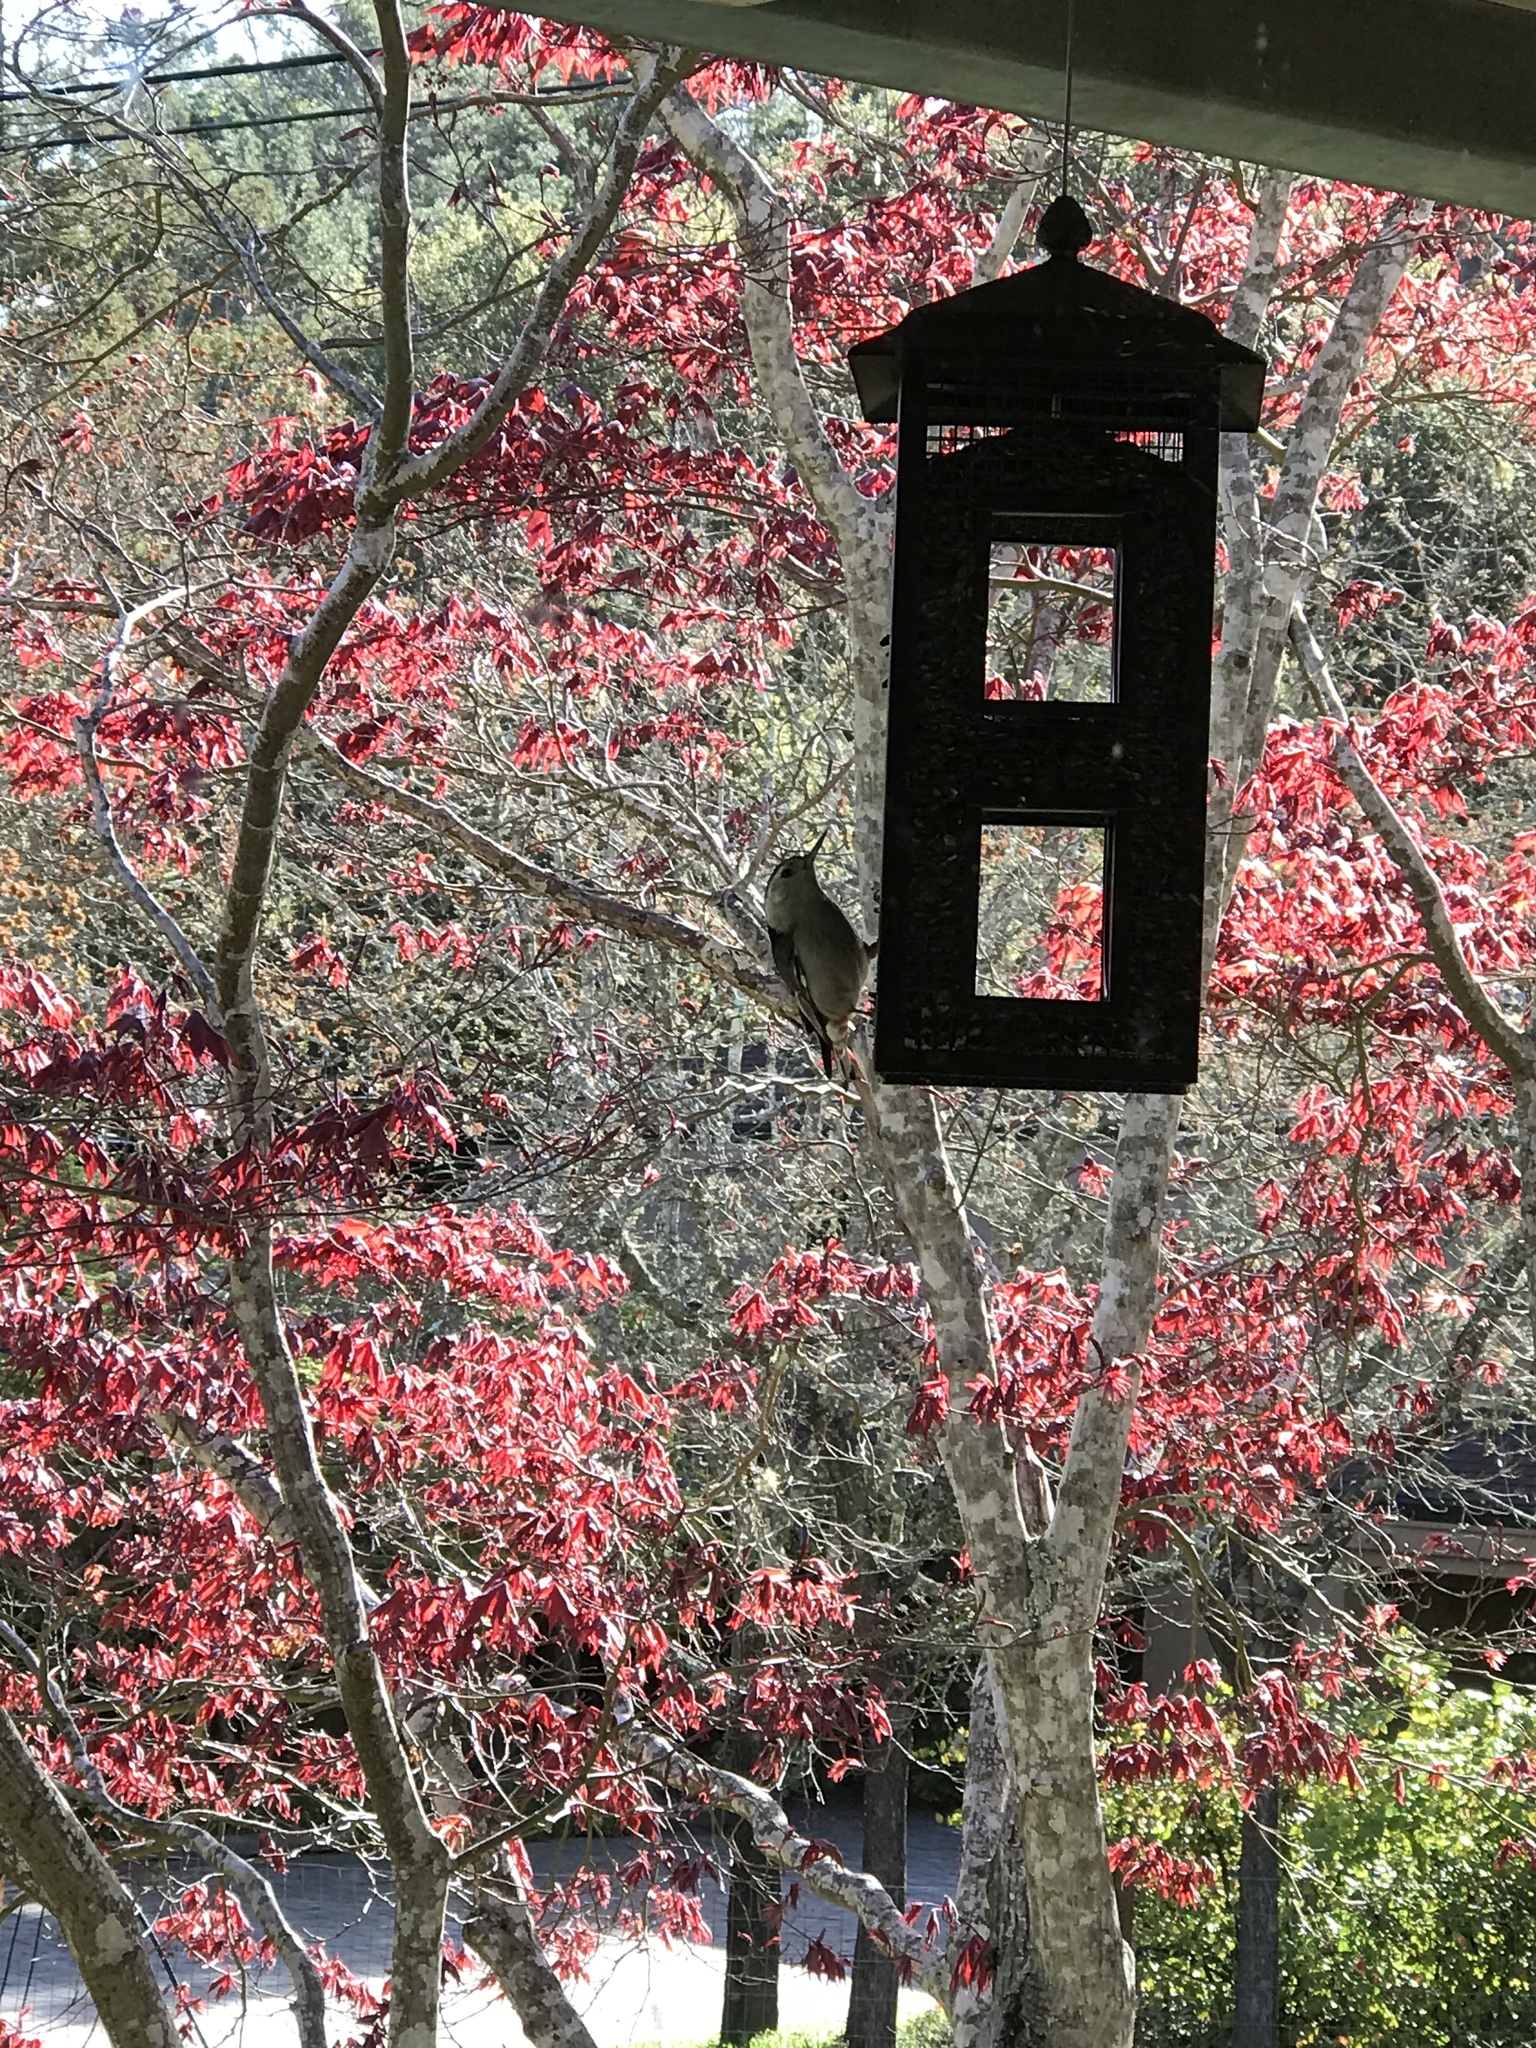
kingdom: Animalia
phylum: Chordata
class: Aves
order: Passeriformes
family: Sittidae
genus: Sitta
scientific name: Sitta carolinensis
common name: White-breasted nuthatch
